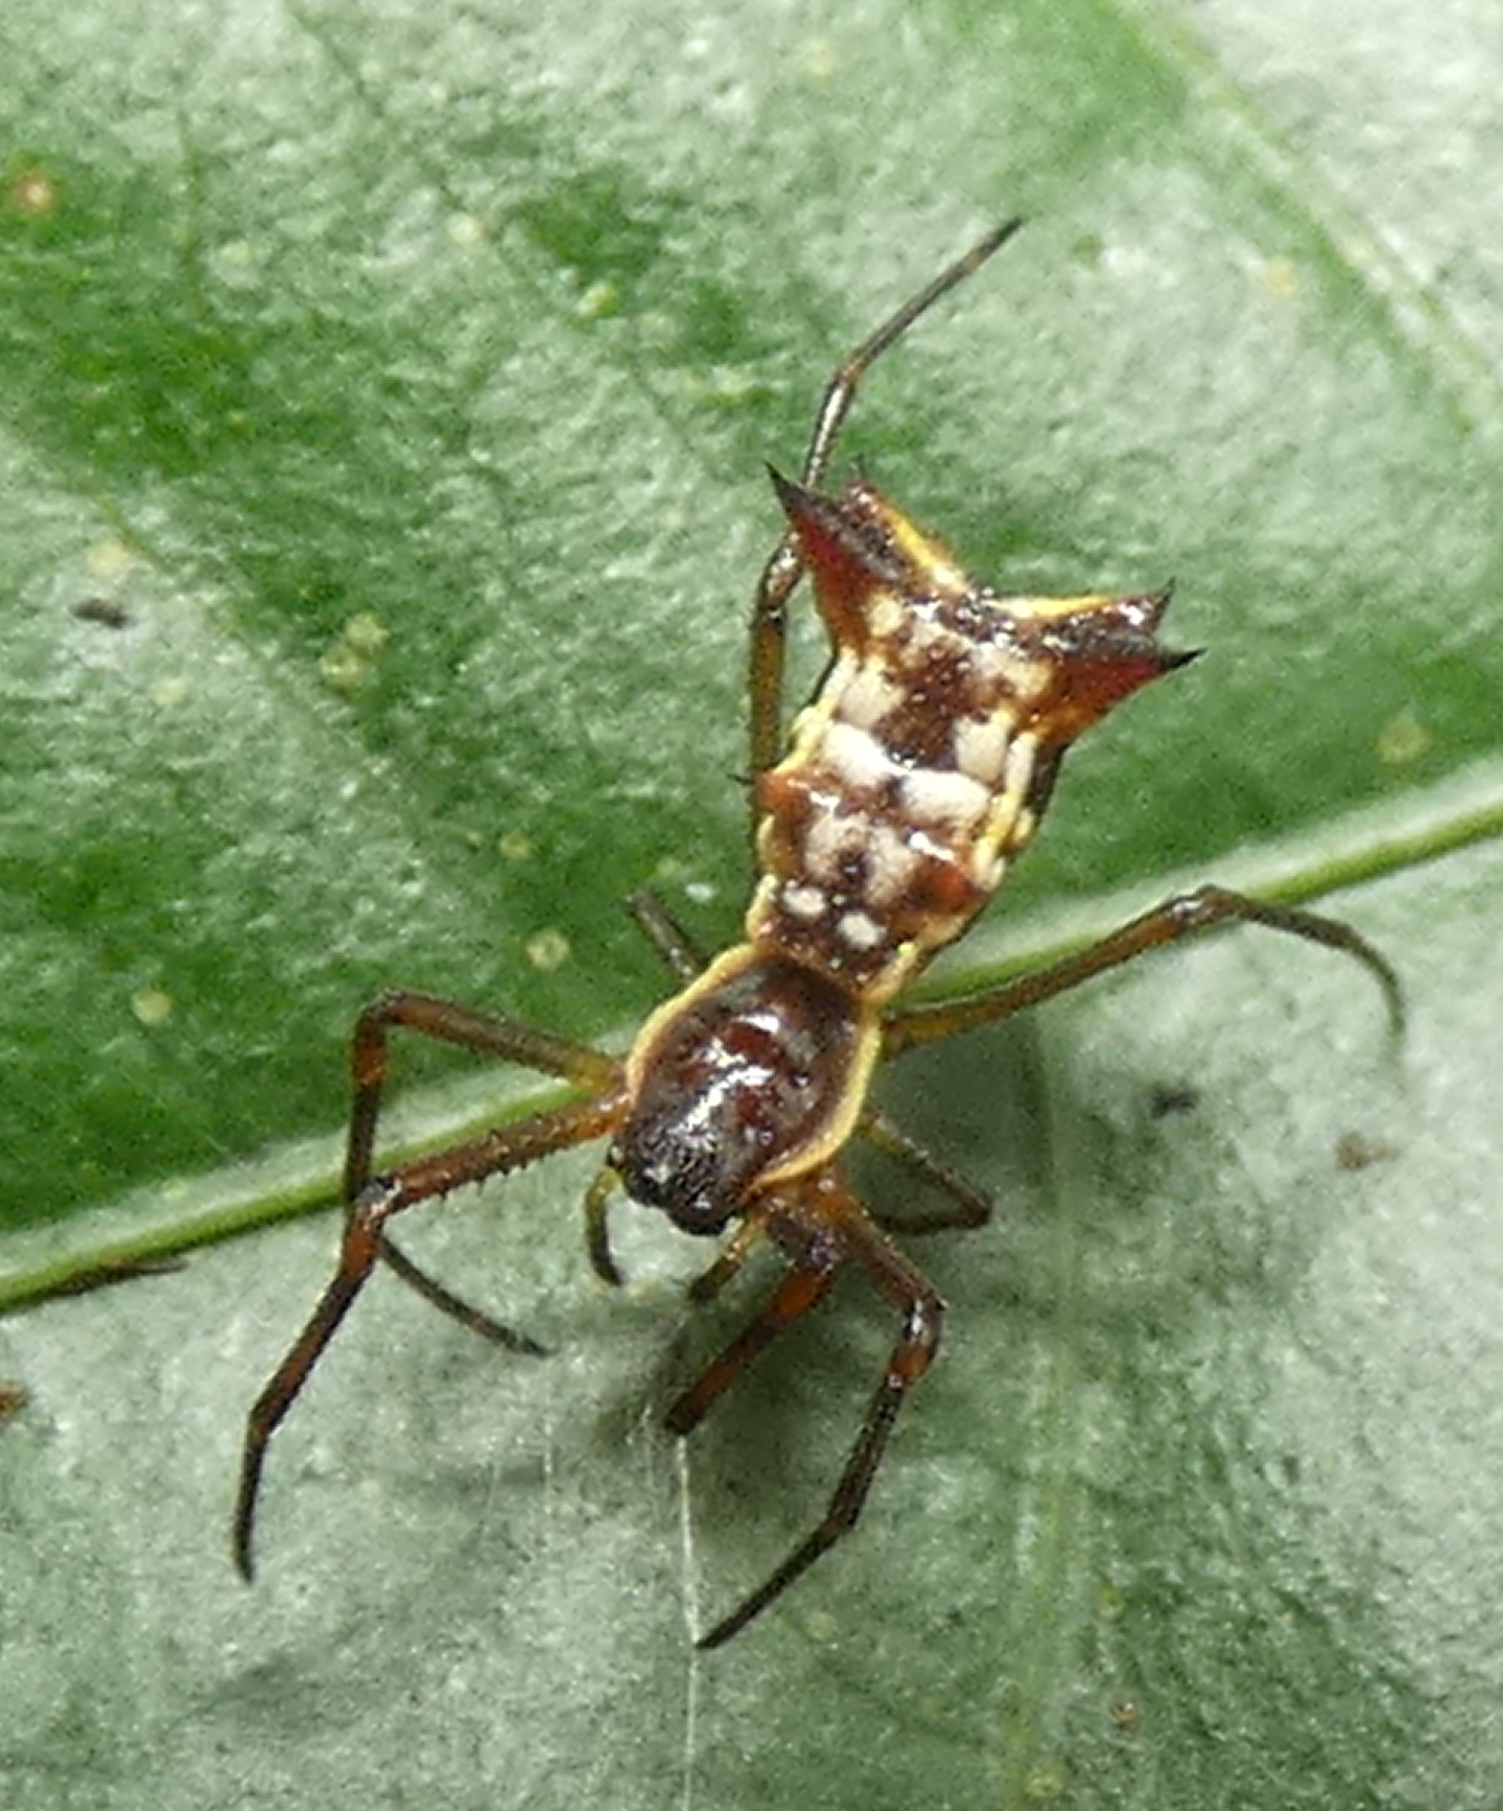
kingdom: Animalia
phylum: Arthropoda
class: Arachnida
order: Araneae
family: Araneidae
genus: Micrathena
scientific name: Micrathena fissispina
